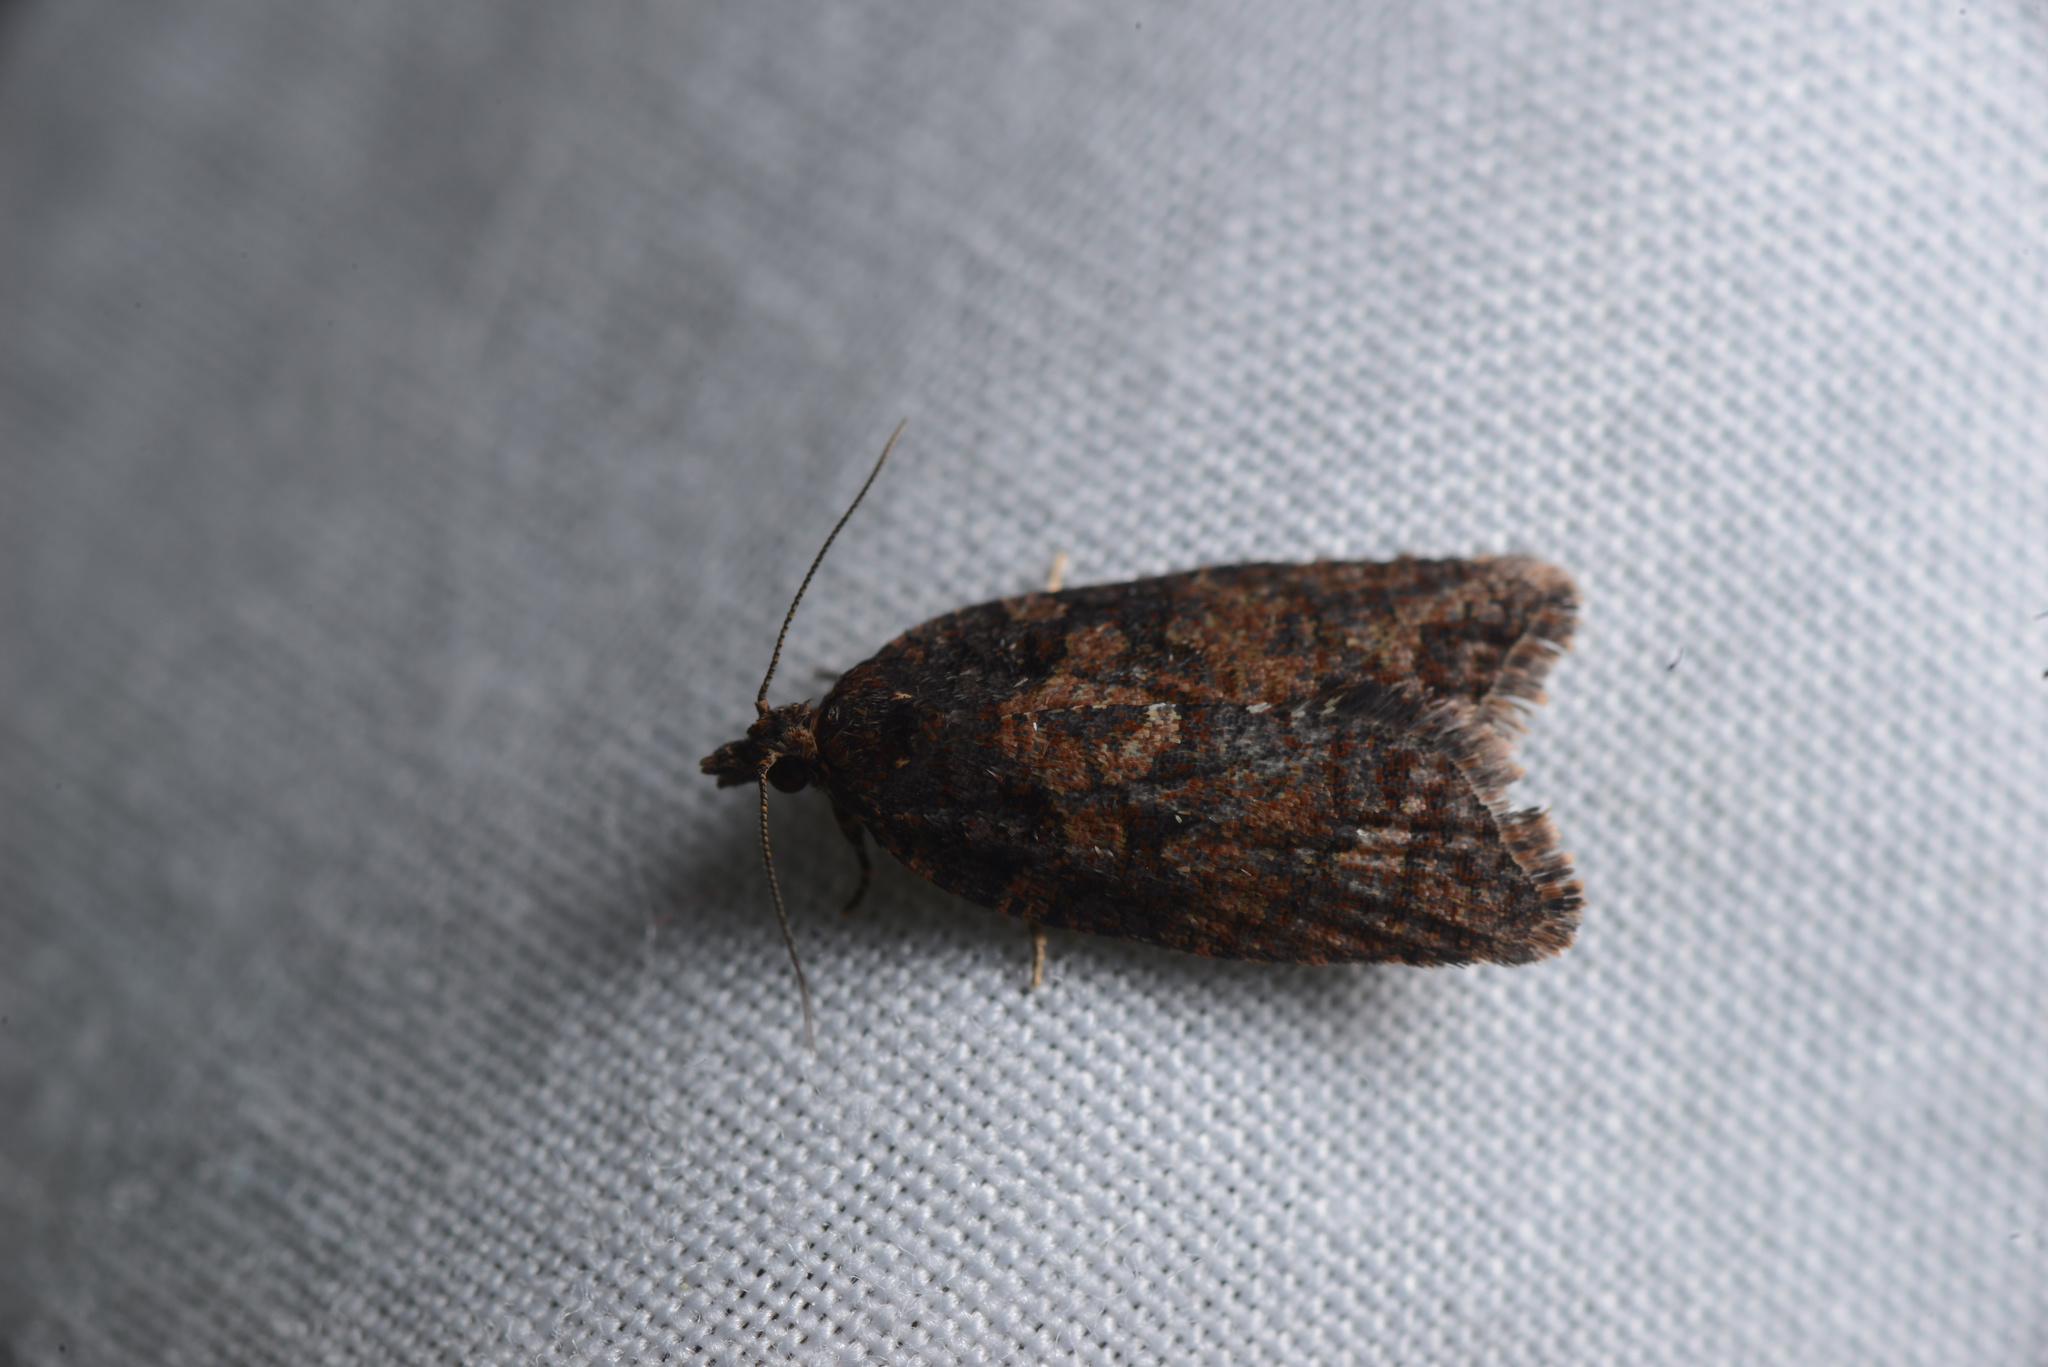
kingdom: Animalia
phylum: Arthropoda
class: Insecta
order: Lepidoptera
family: Tortricidae
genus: Capua
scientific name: Capua intractana
